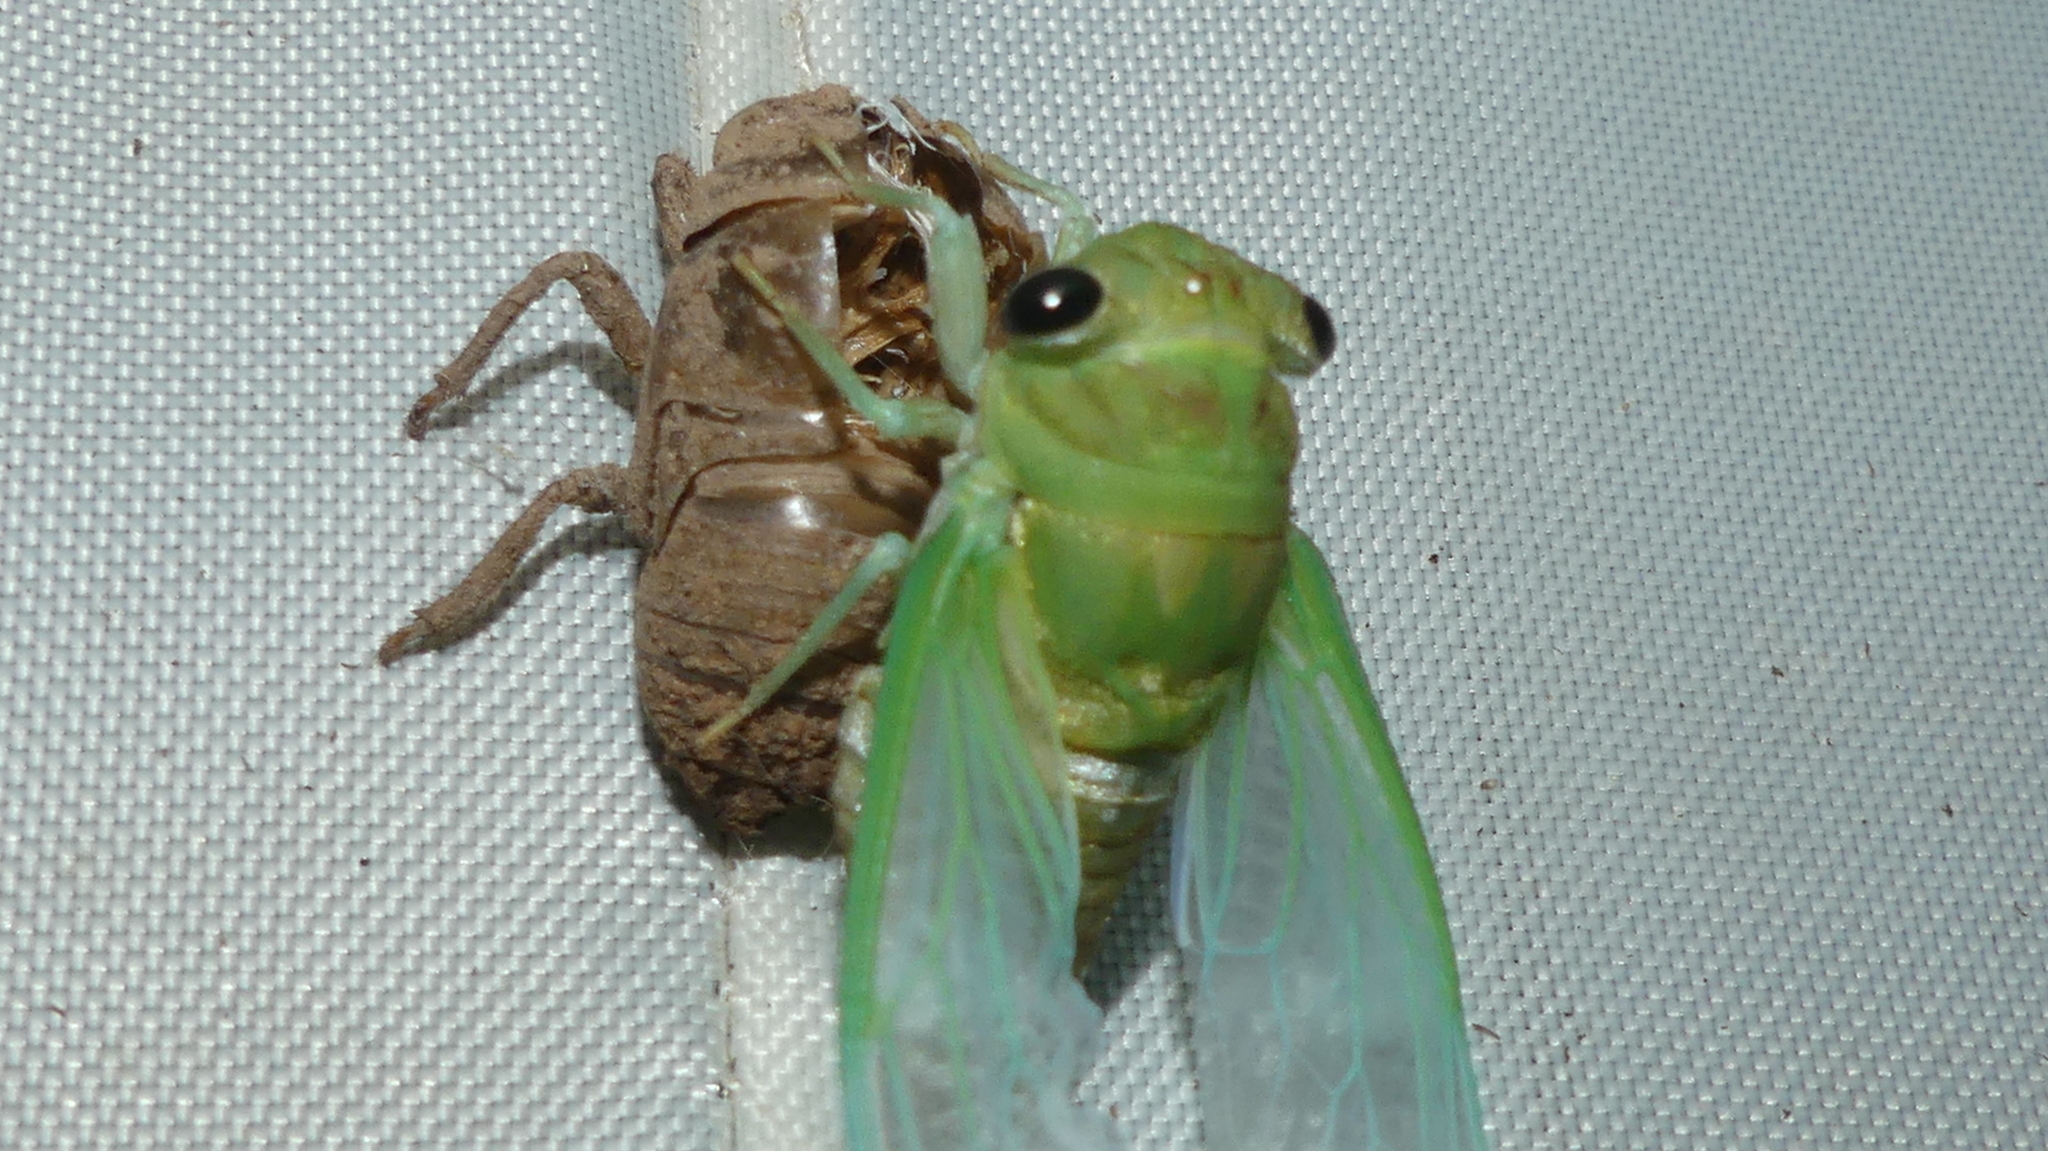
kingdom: Animalia
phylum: Arthropoda
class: Insecta
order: Hemiptera
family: Cicadidae
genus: Neotibicen
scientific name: Neotibicen superbus
